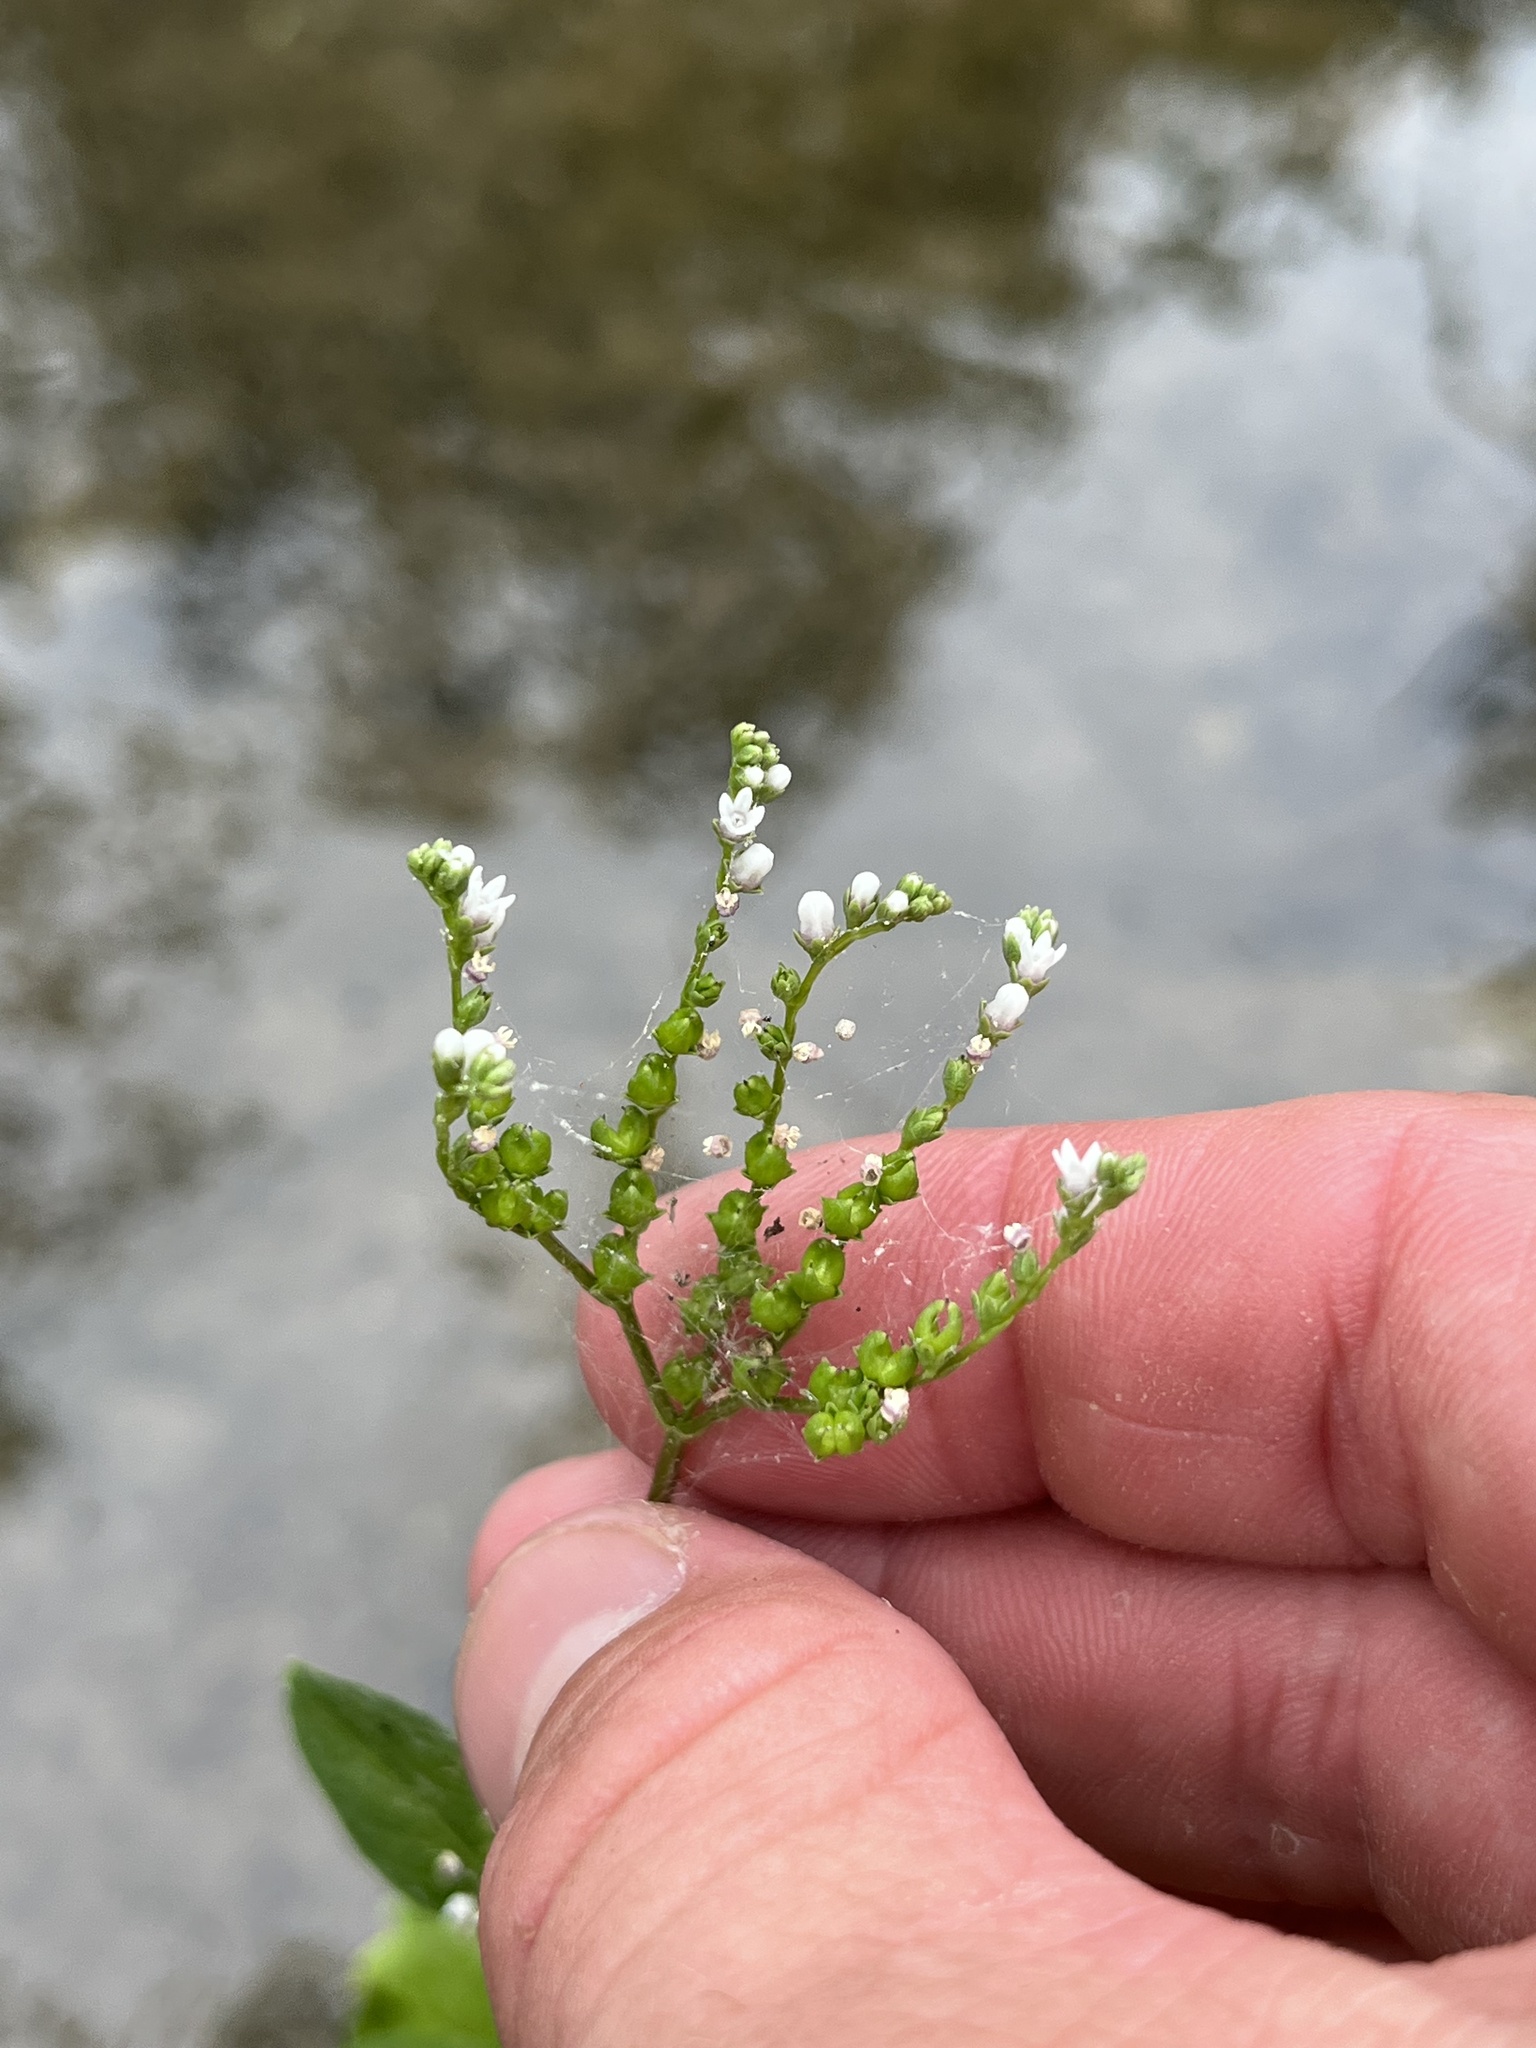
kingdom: Plantae
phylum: Tracheophyta
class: Magnoliopsida
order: Gentianales
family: Loganiaceae
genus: Mitreola
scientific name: Mitreola petiolata
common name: Lax hornpod
